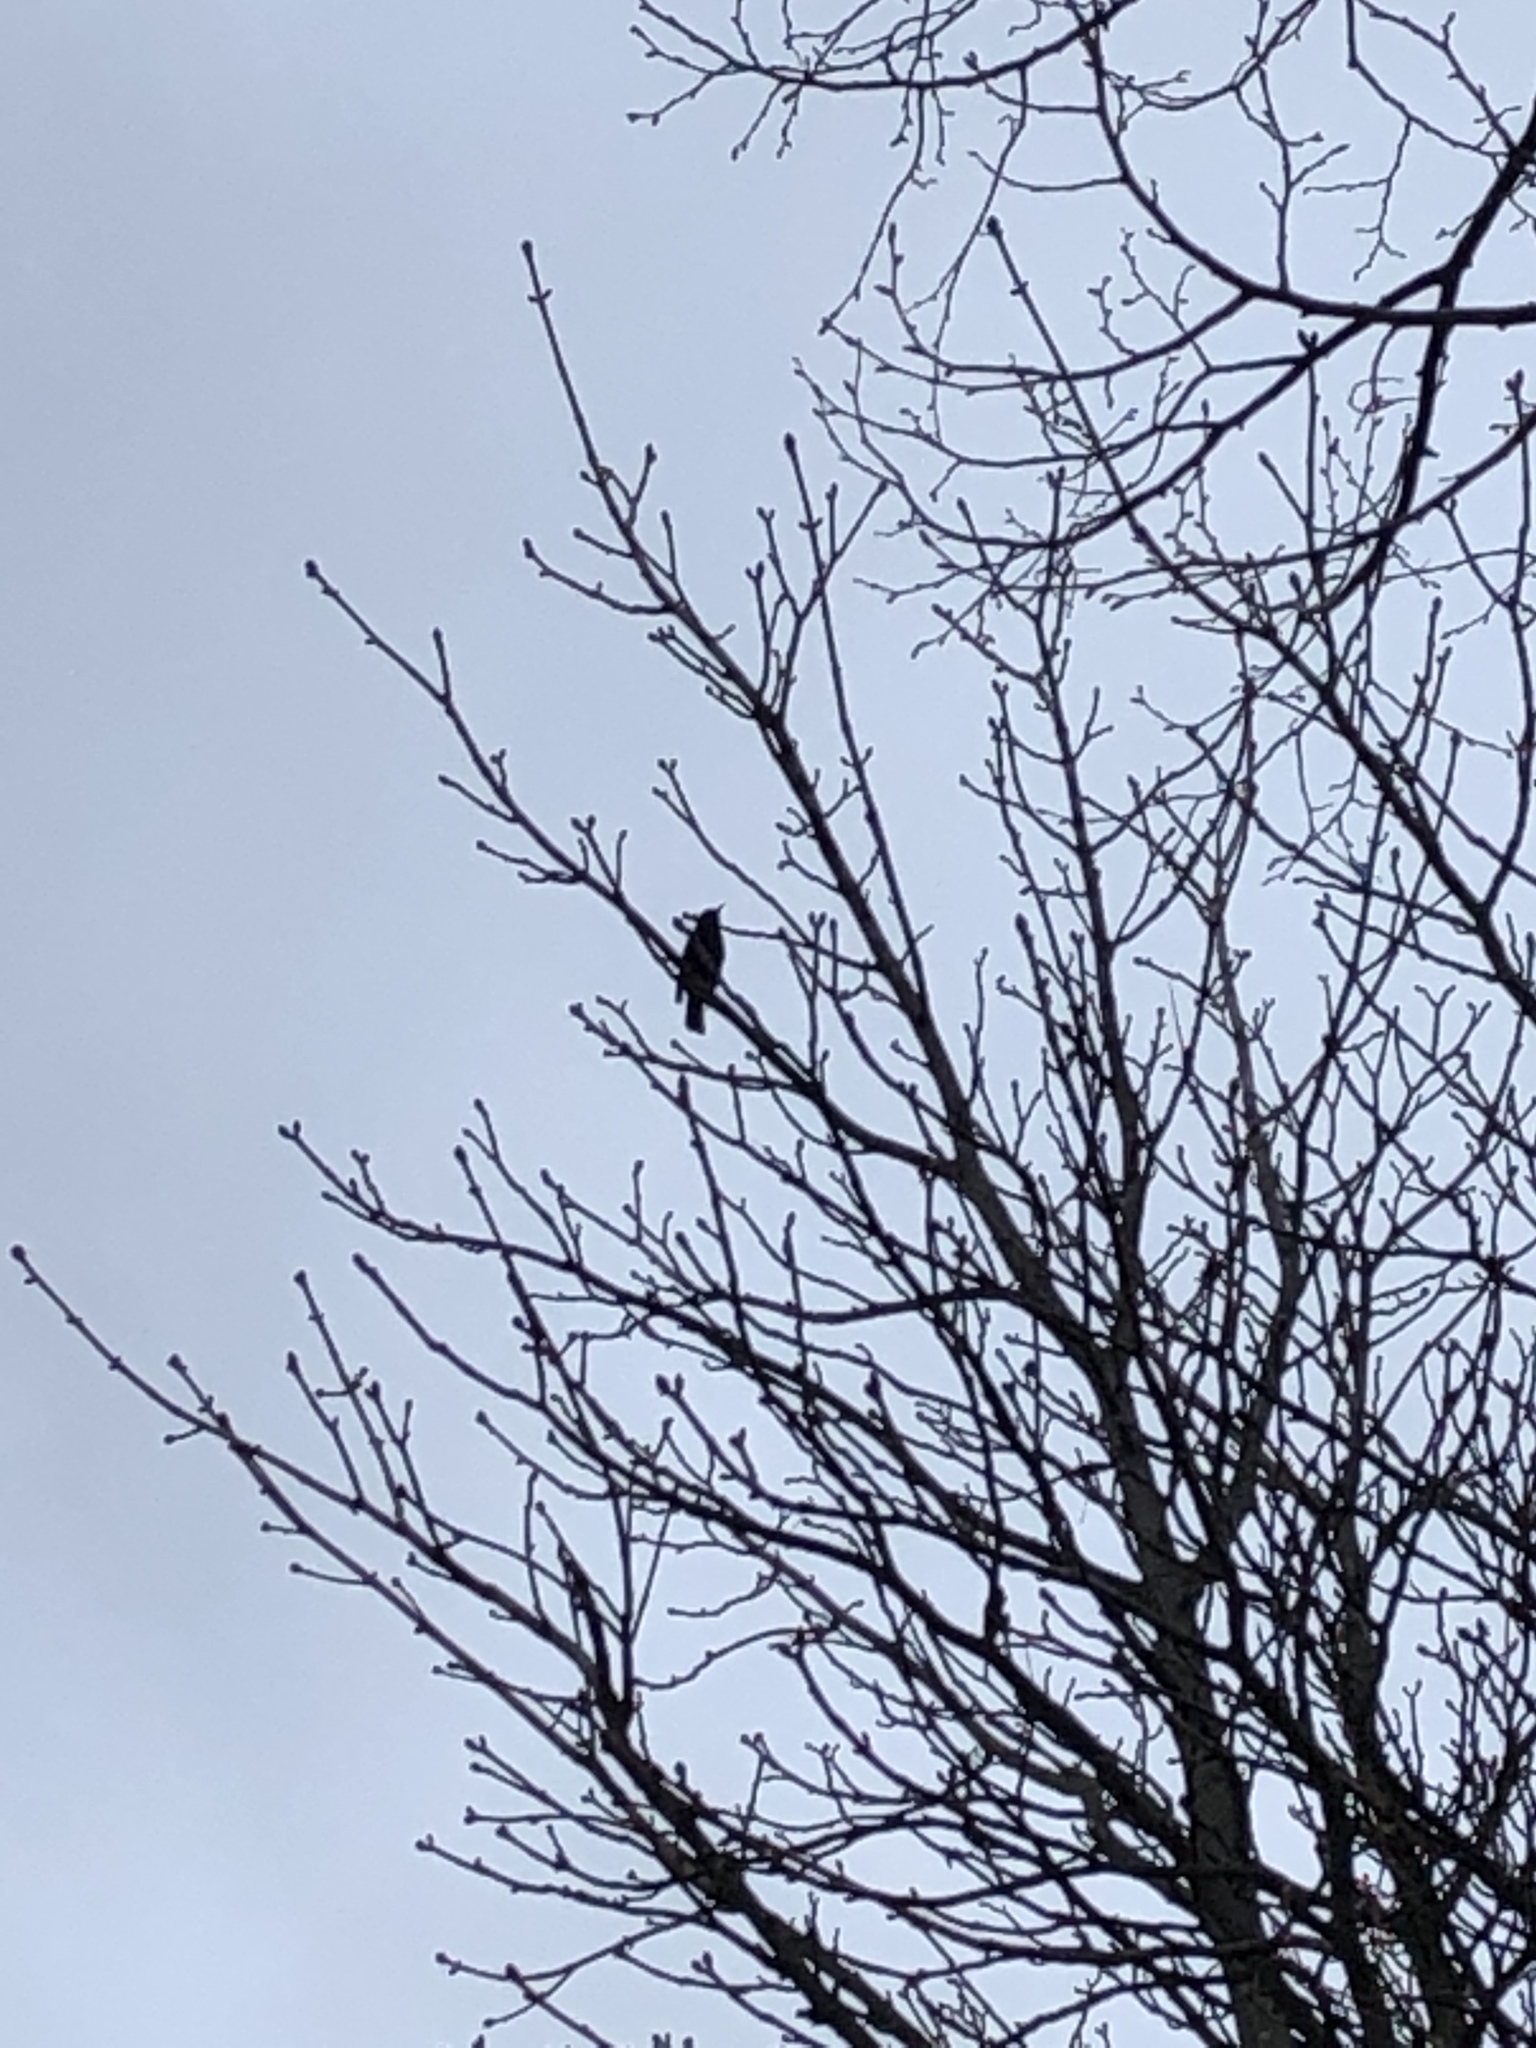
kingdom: Animalia
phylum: Chordata
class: Aves
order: Passeriformes
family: Turdidae
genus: Turdus
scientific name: Turdus merula
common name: Common blackbird
